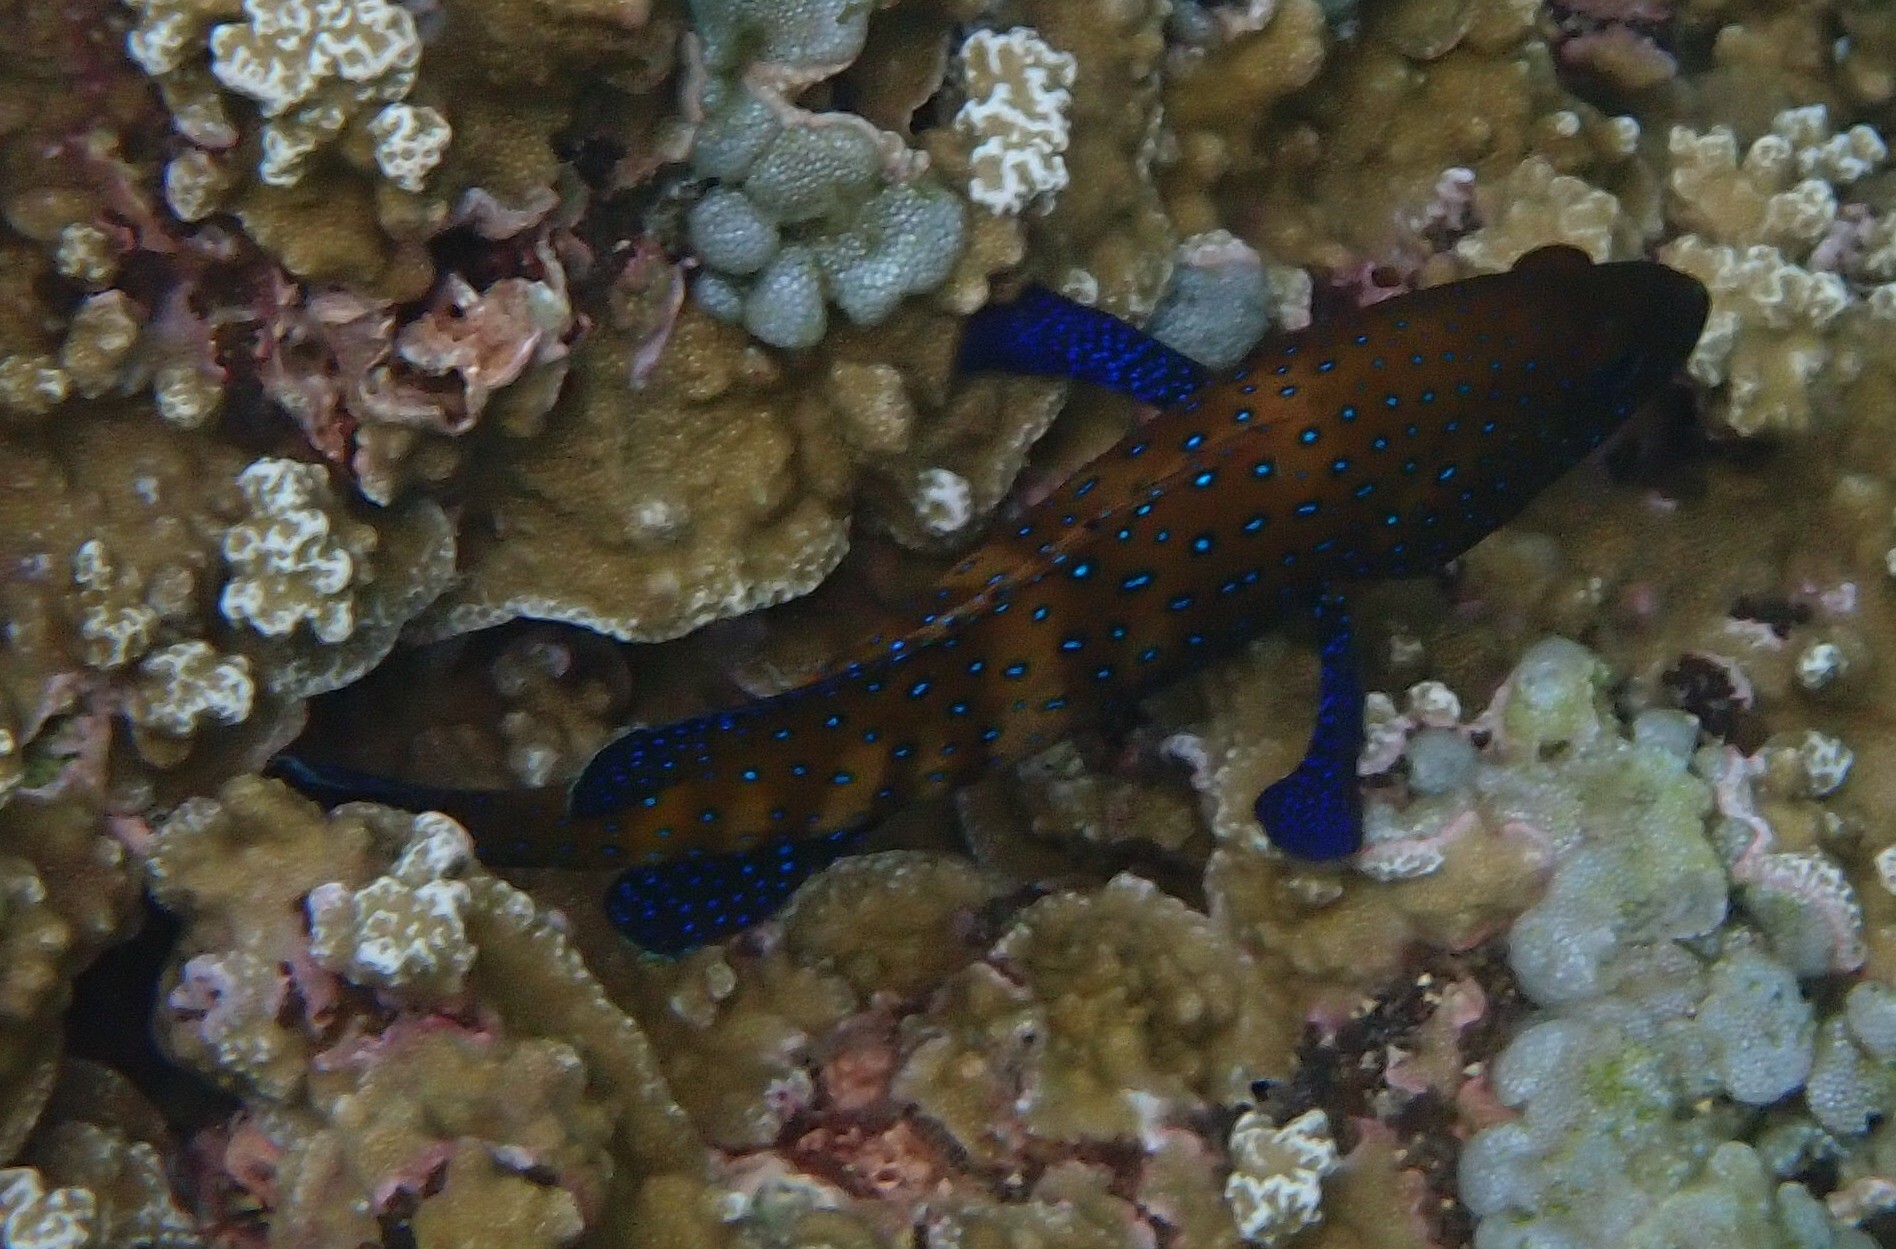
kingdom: Animalia
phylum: Chordata
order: Perciformes
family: Serranidae
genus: Cephalopholis
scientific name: Cephalopholis argus
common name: Peacock grouper
